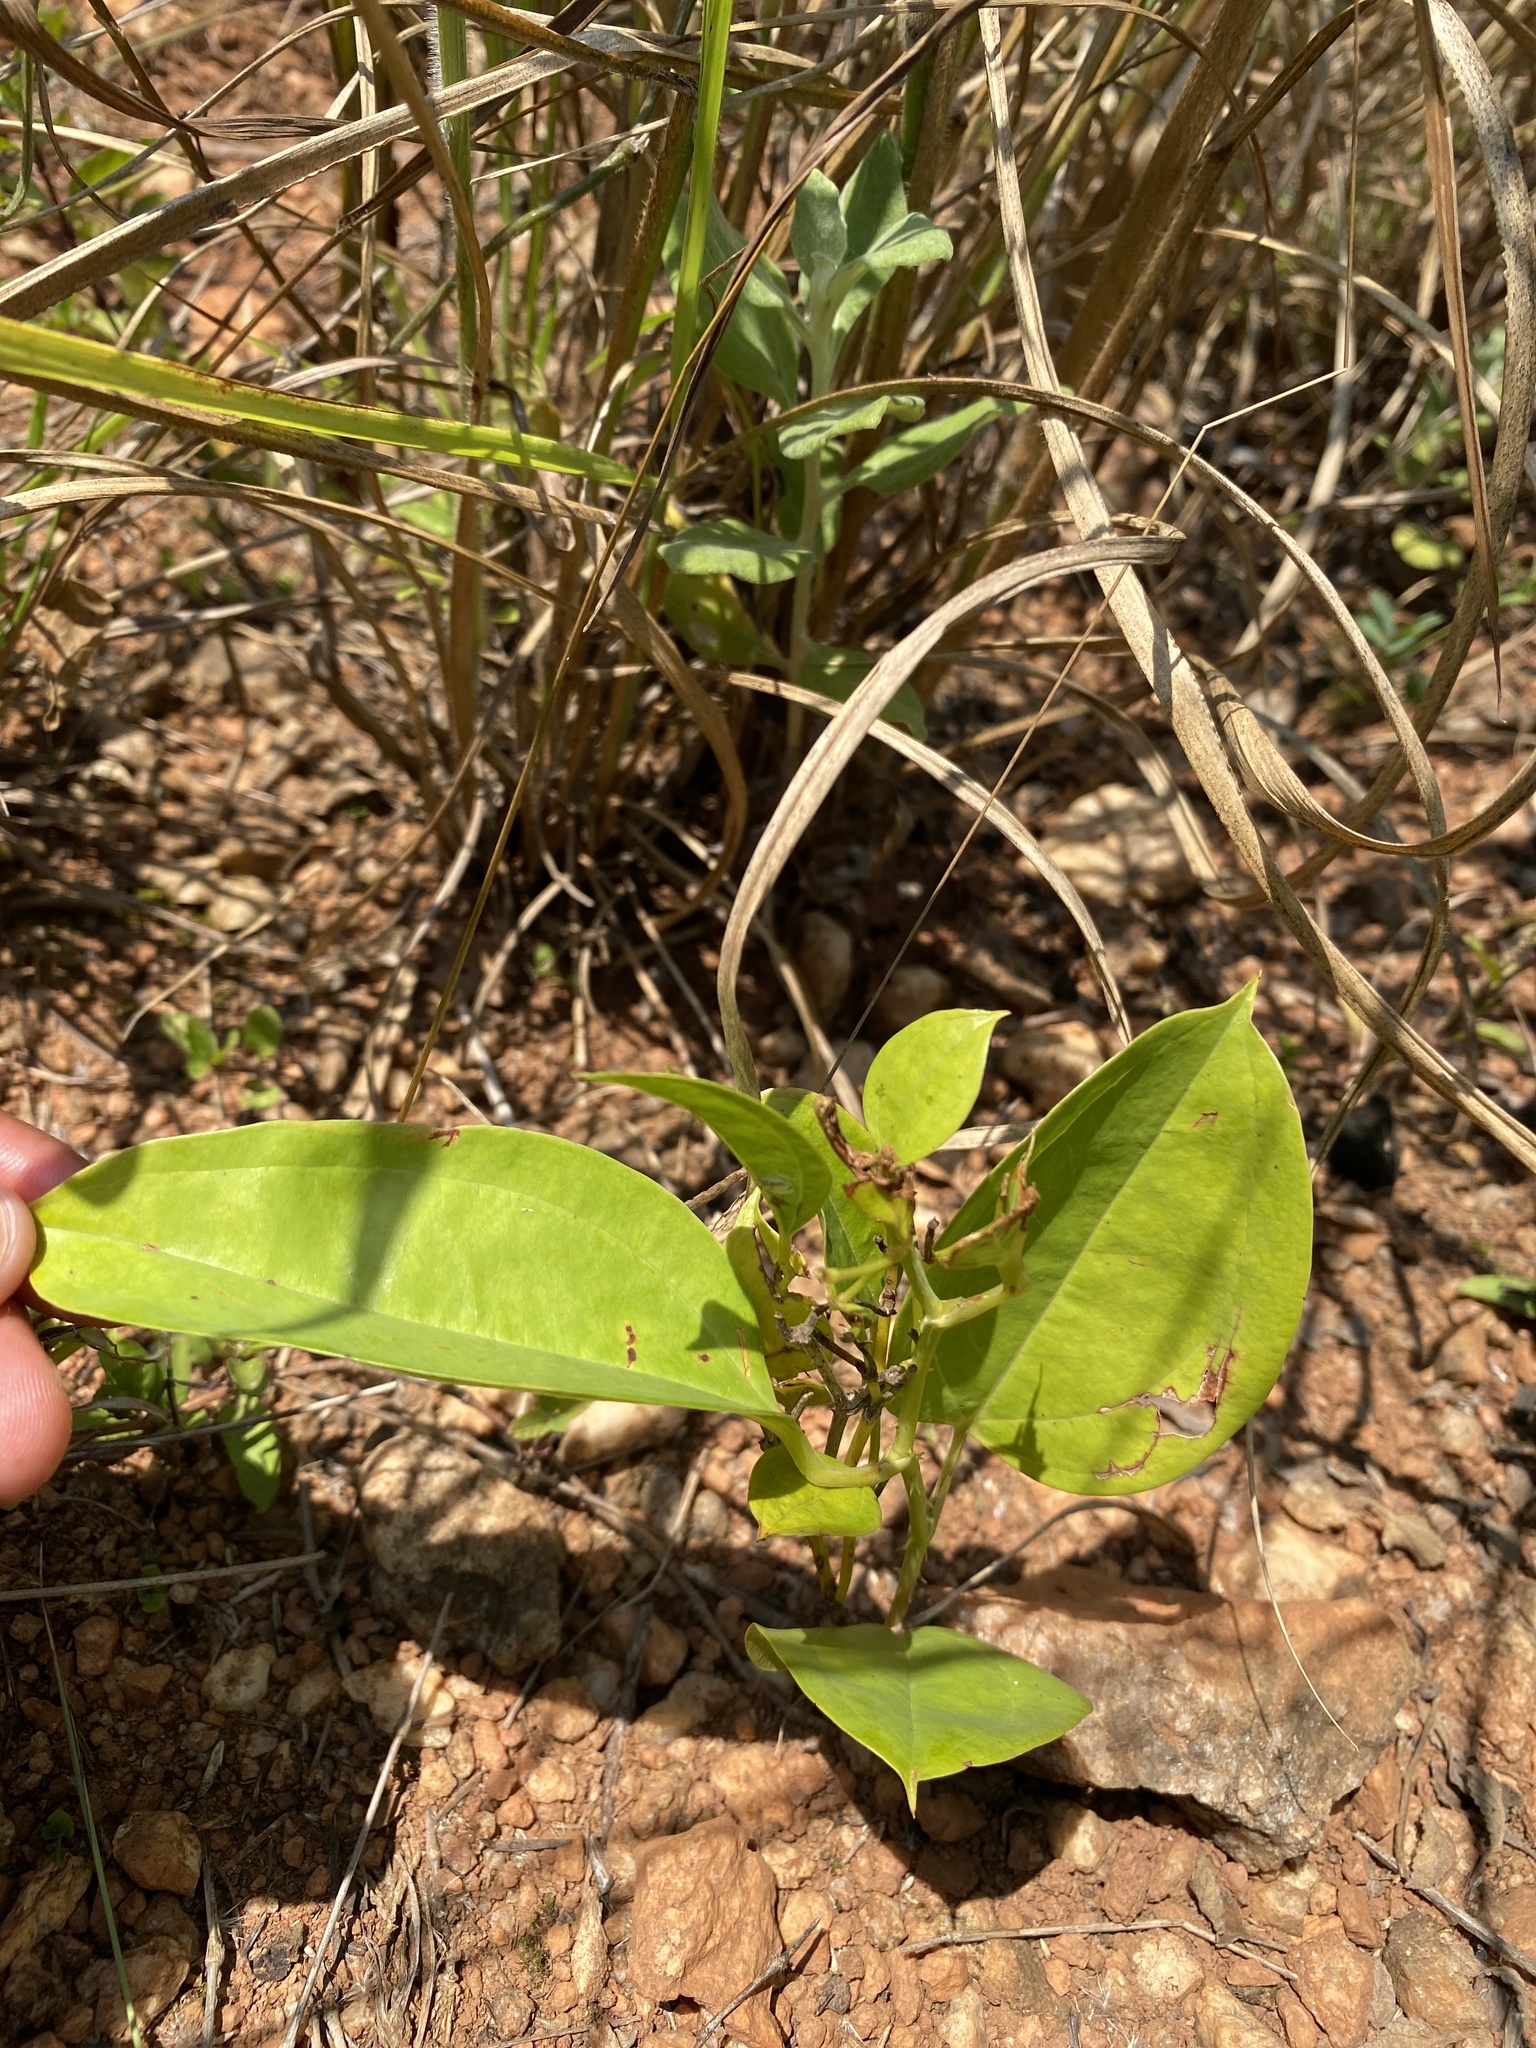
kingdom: Plantae
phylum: Tracheophyta
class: Liliopsida
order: Liliales
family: Smilacaceae
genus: Smilax
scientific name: Smilax anceps
